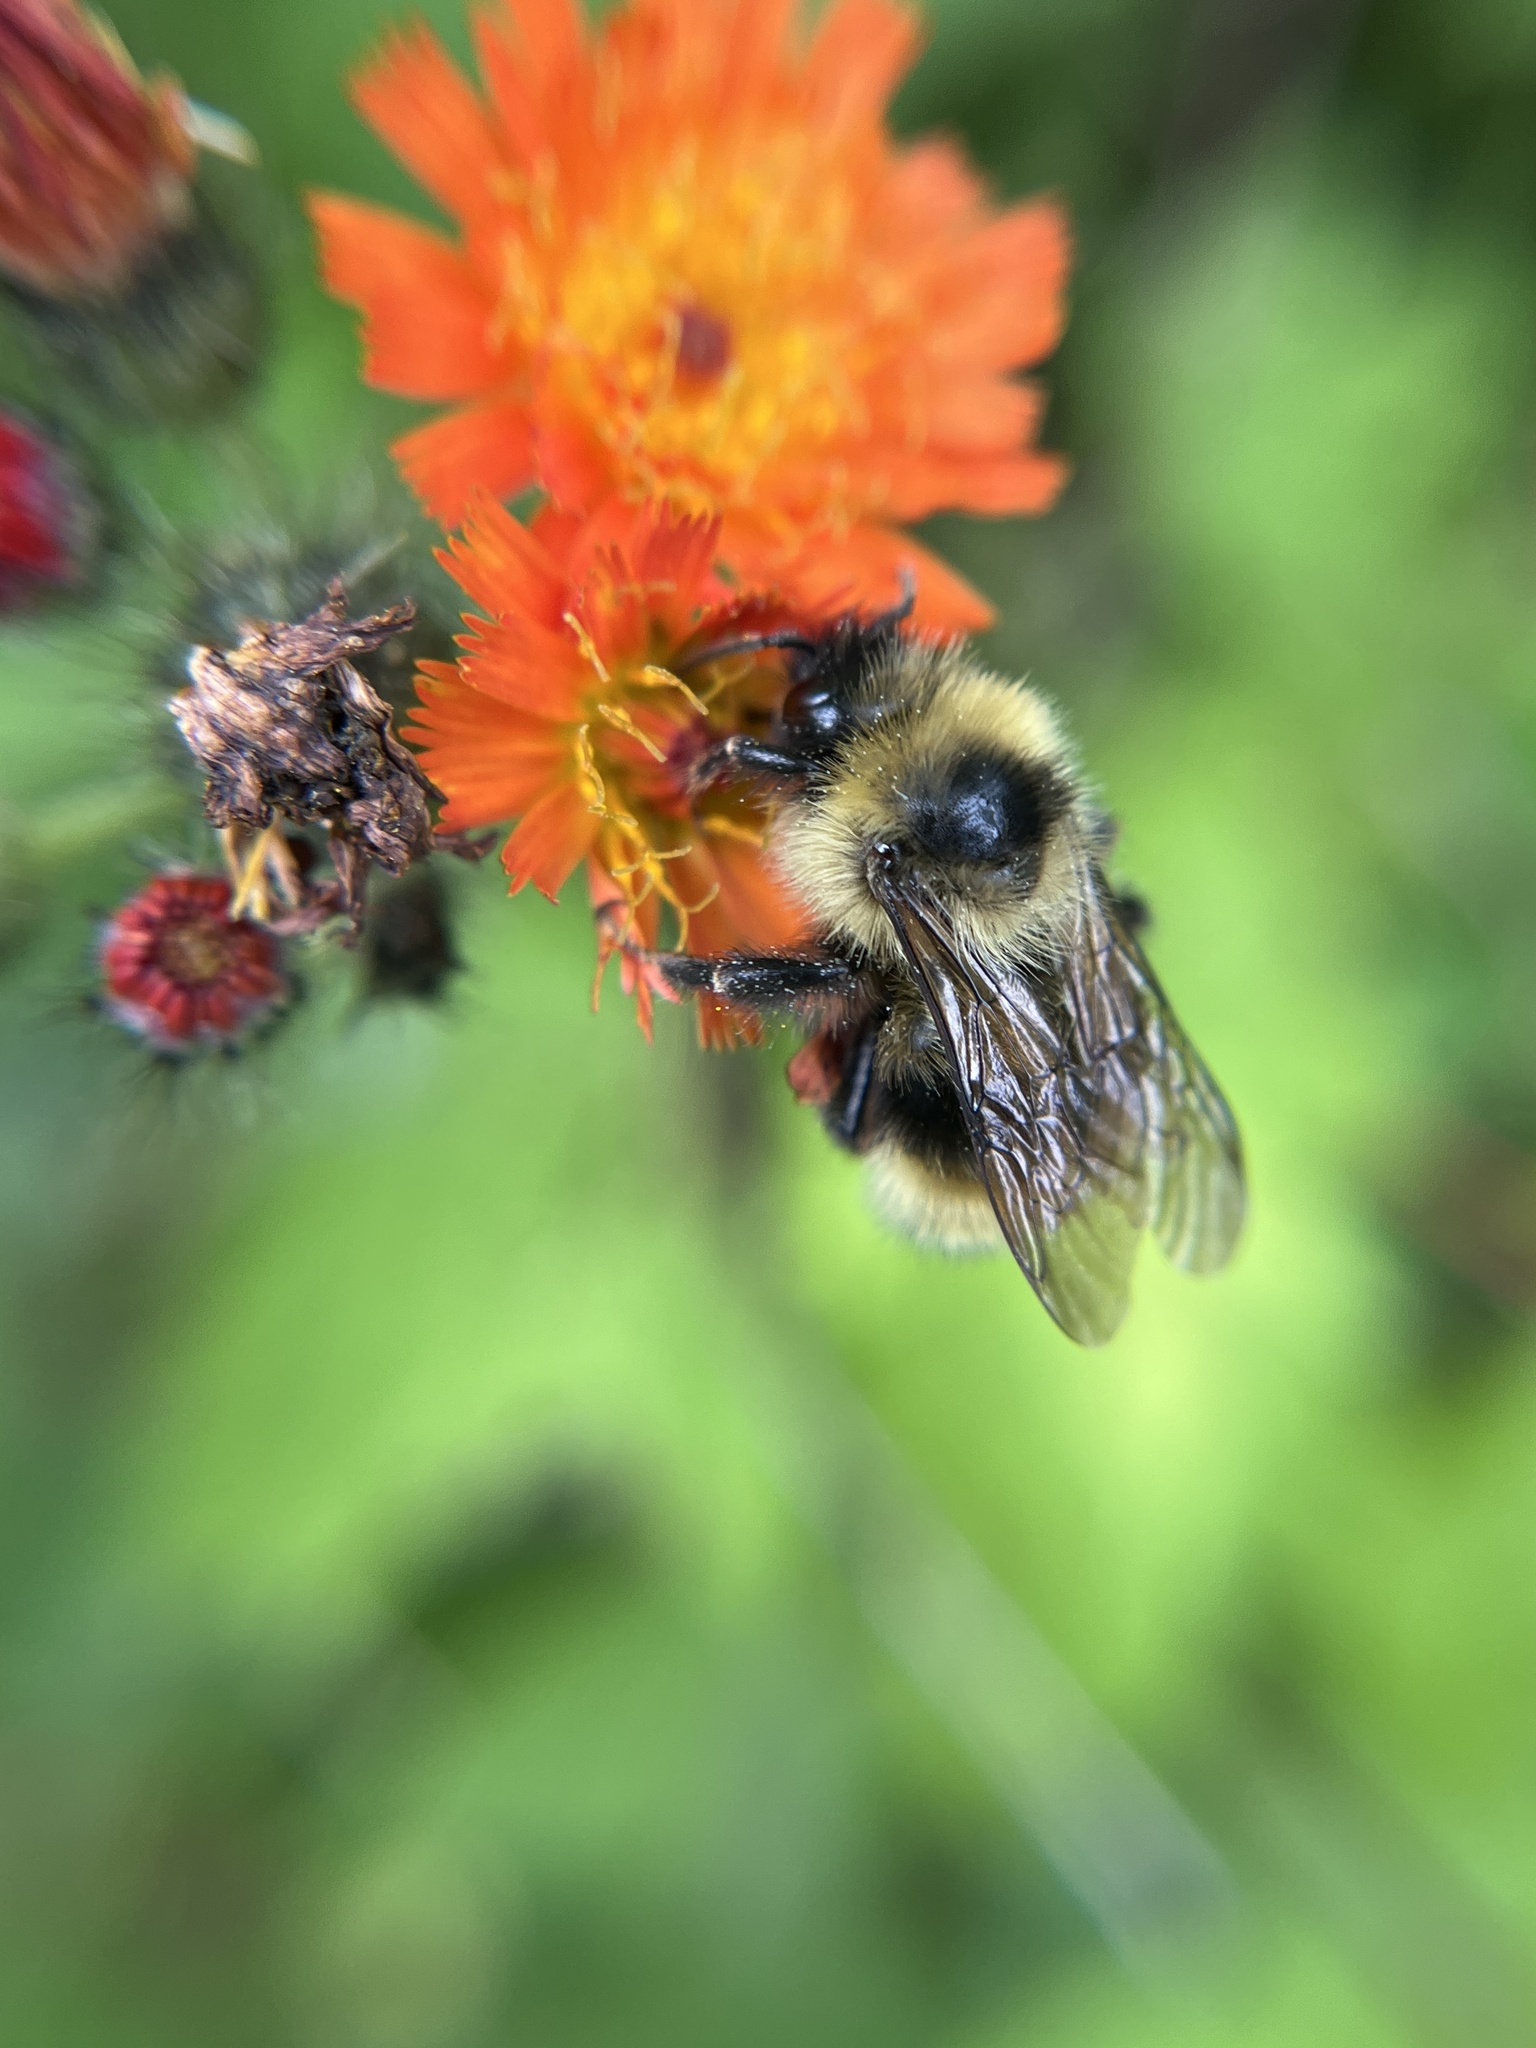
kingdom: Animalia
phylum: Arthropoda
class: Insecta
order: Hymenoptera
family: Apidae
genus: Bombus
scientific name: Bombus flavidus
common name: Fernald cuckoo bumble bee
